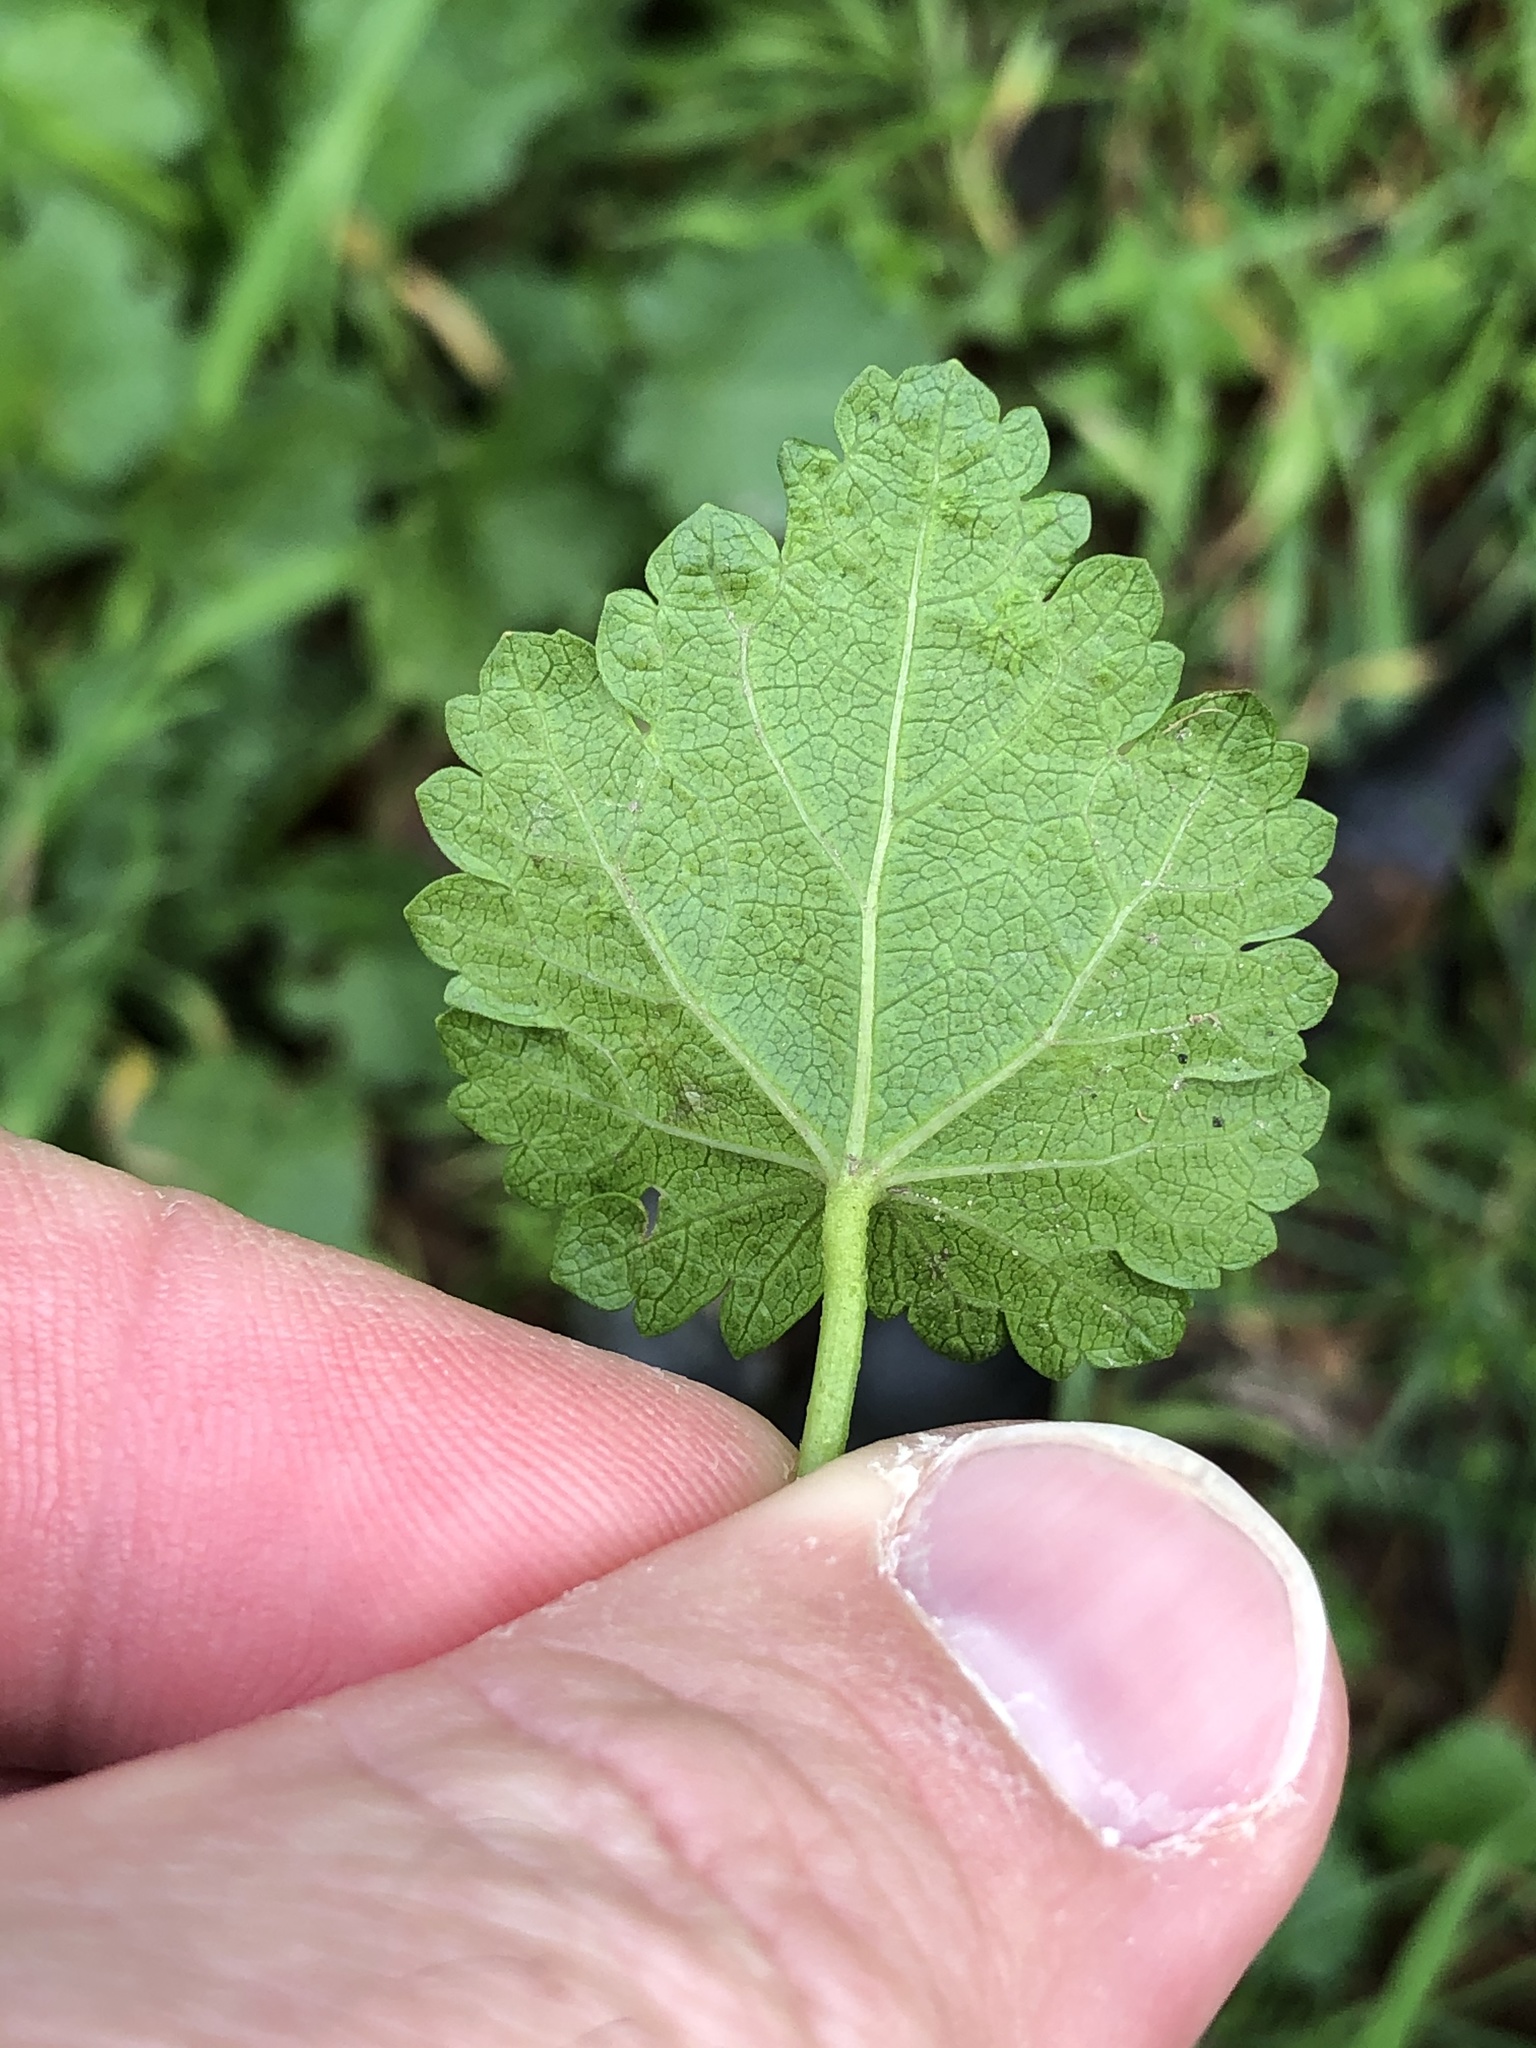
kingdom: Plantae
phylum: Tracheophyta
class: Magnoliopsida
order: Malvales
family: Malvaceae
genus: Modiola
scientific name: Modiola caroliniana
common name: Carolina bristlemallow
